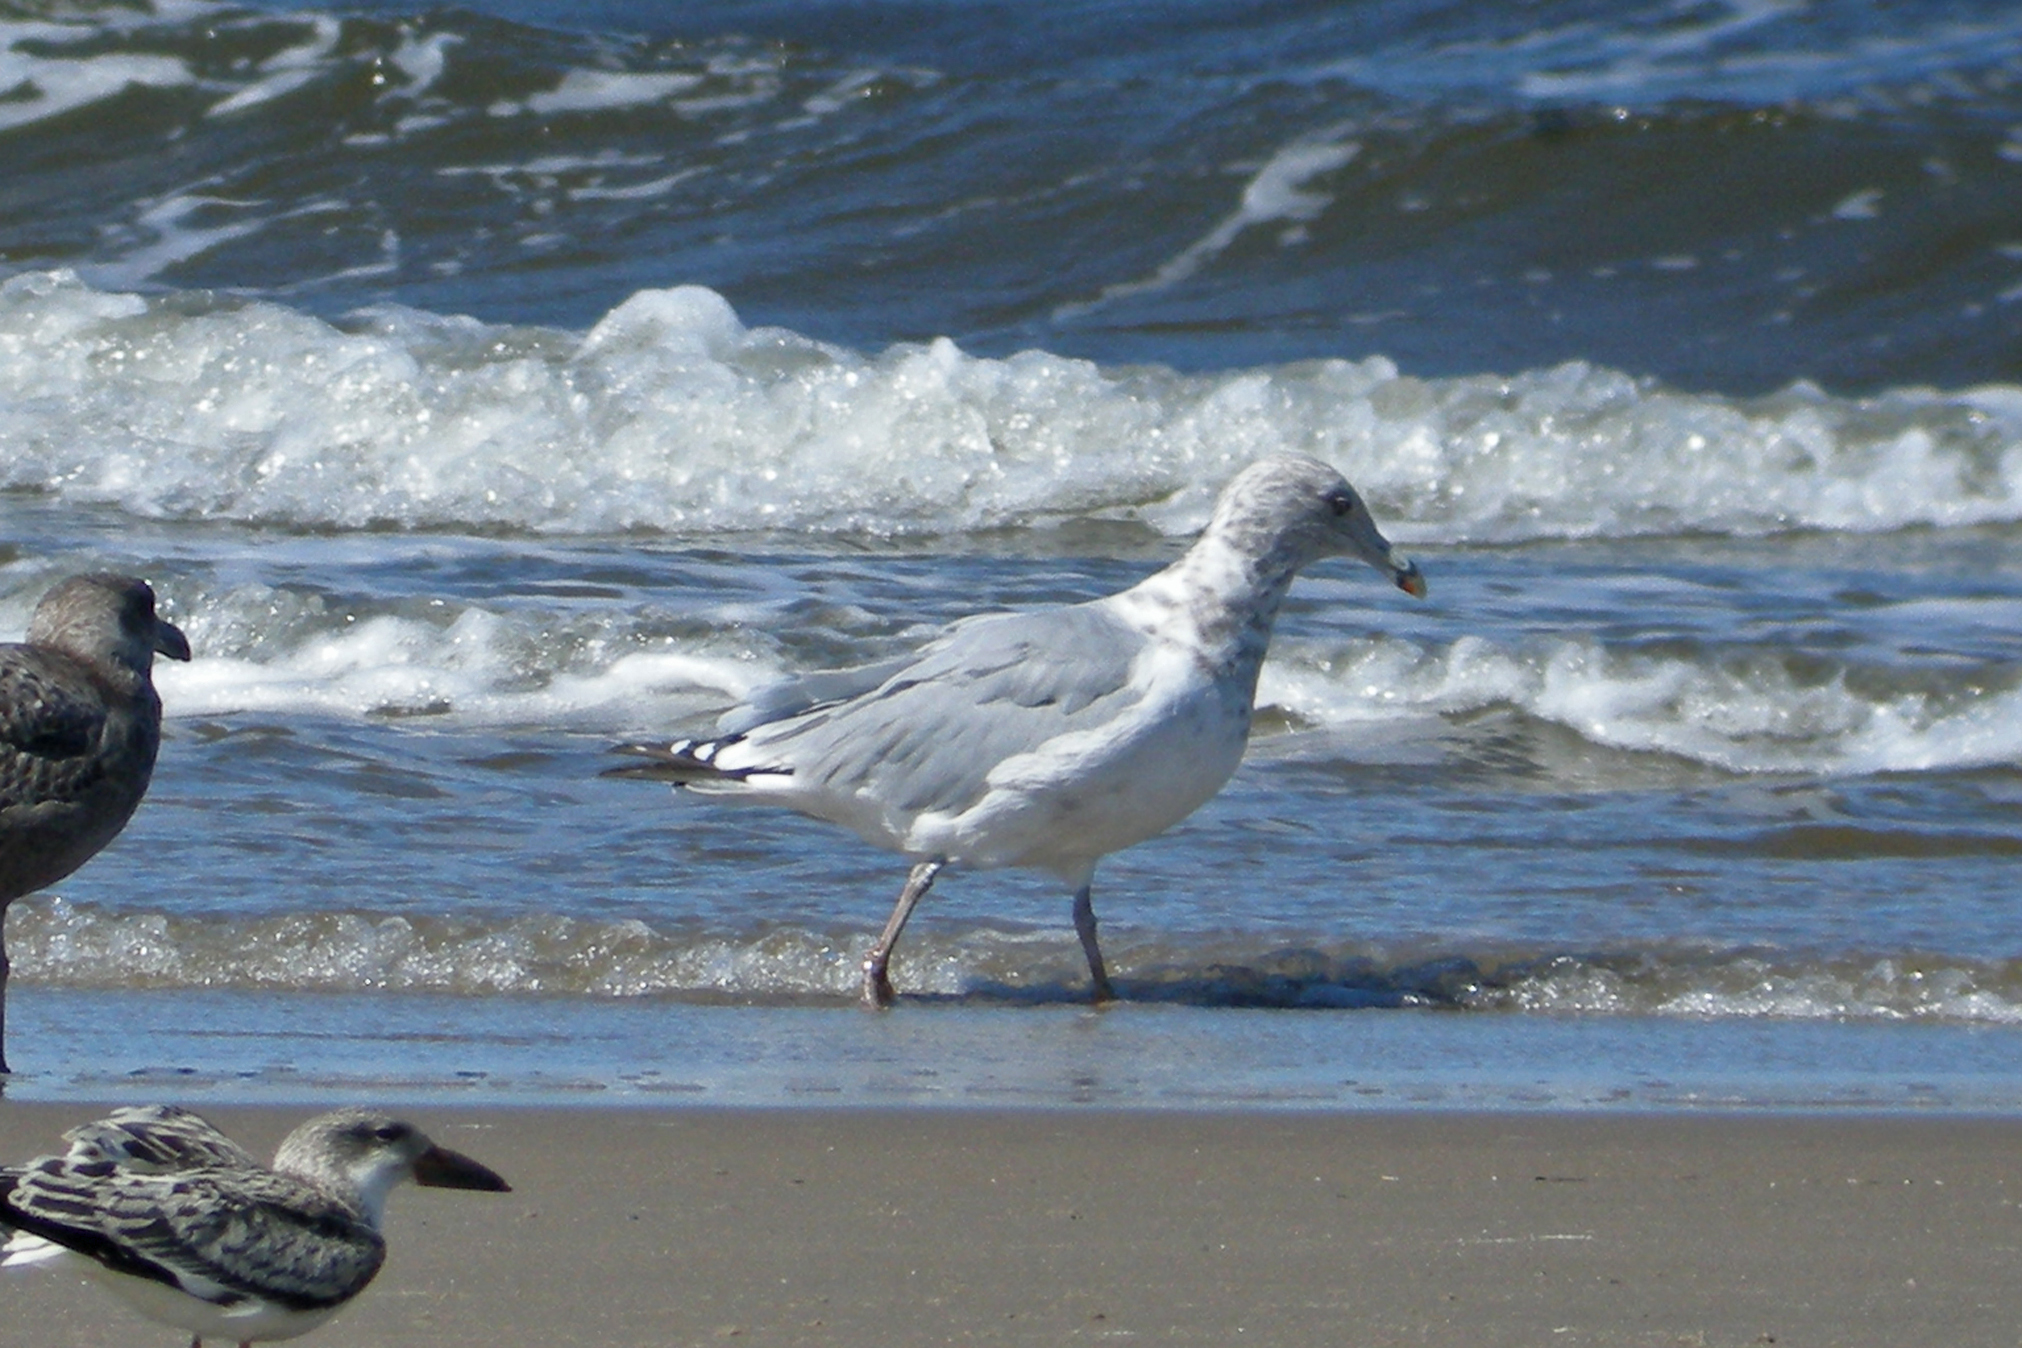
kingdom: Animalia
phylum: Chordata
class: Aves
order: Charadriiformes
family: Laridae
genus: Larus
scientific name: Larus argentatus
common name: Herring gull
